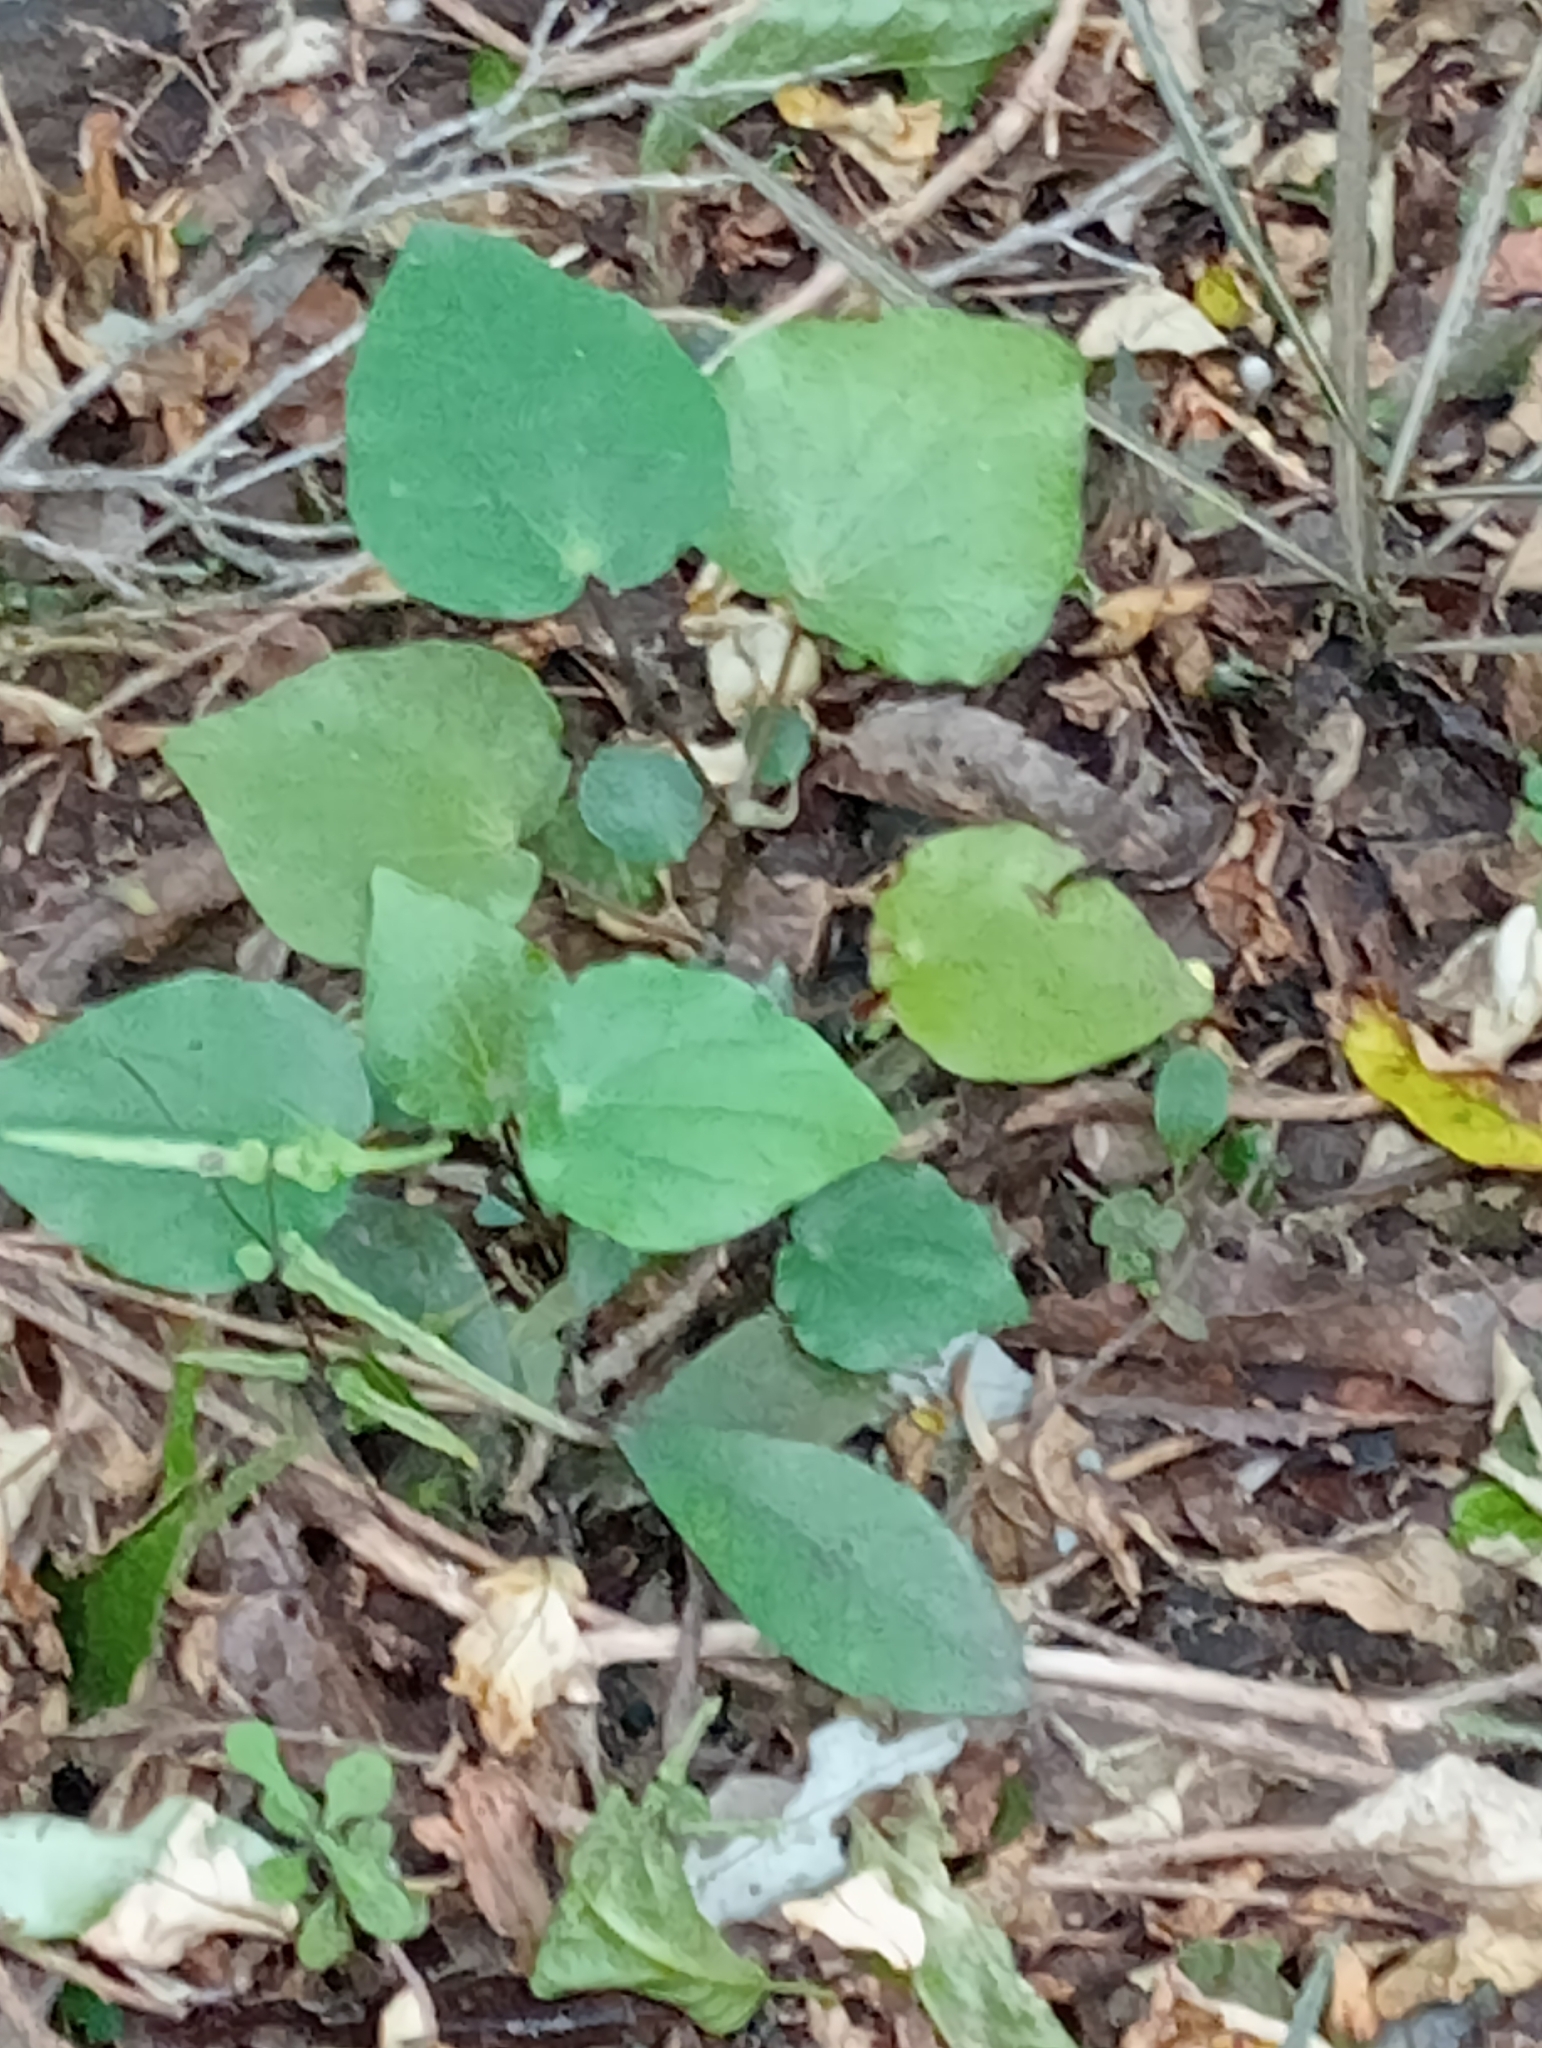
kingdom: Plantae
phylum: Tracheophyta
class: Magnoliopsida
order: Piperales
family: Piperaceae
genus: Macropiper
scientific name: Macropiper excelsum
